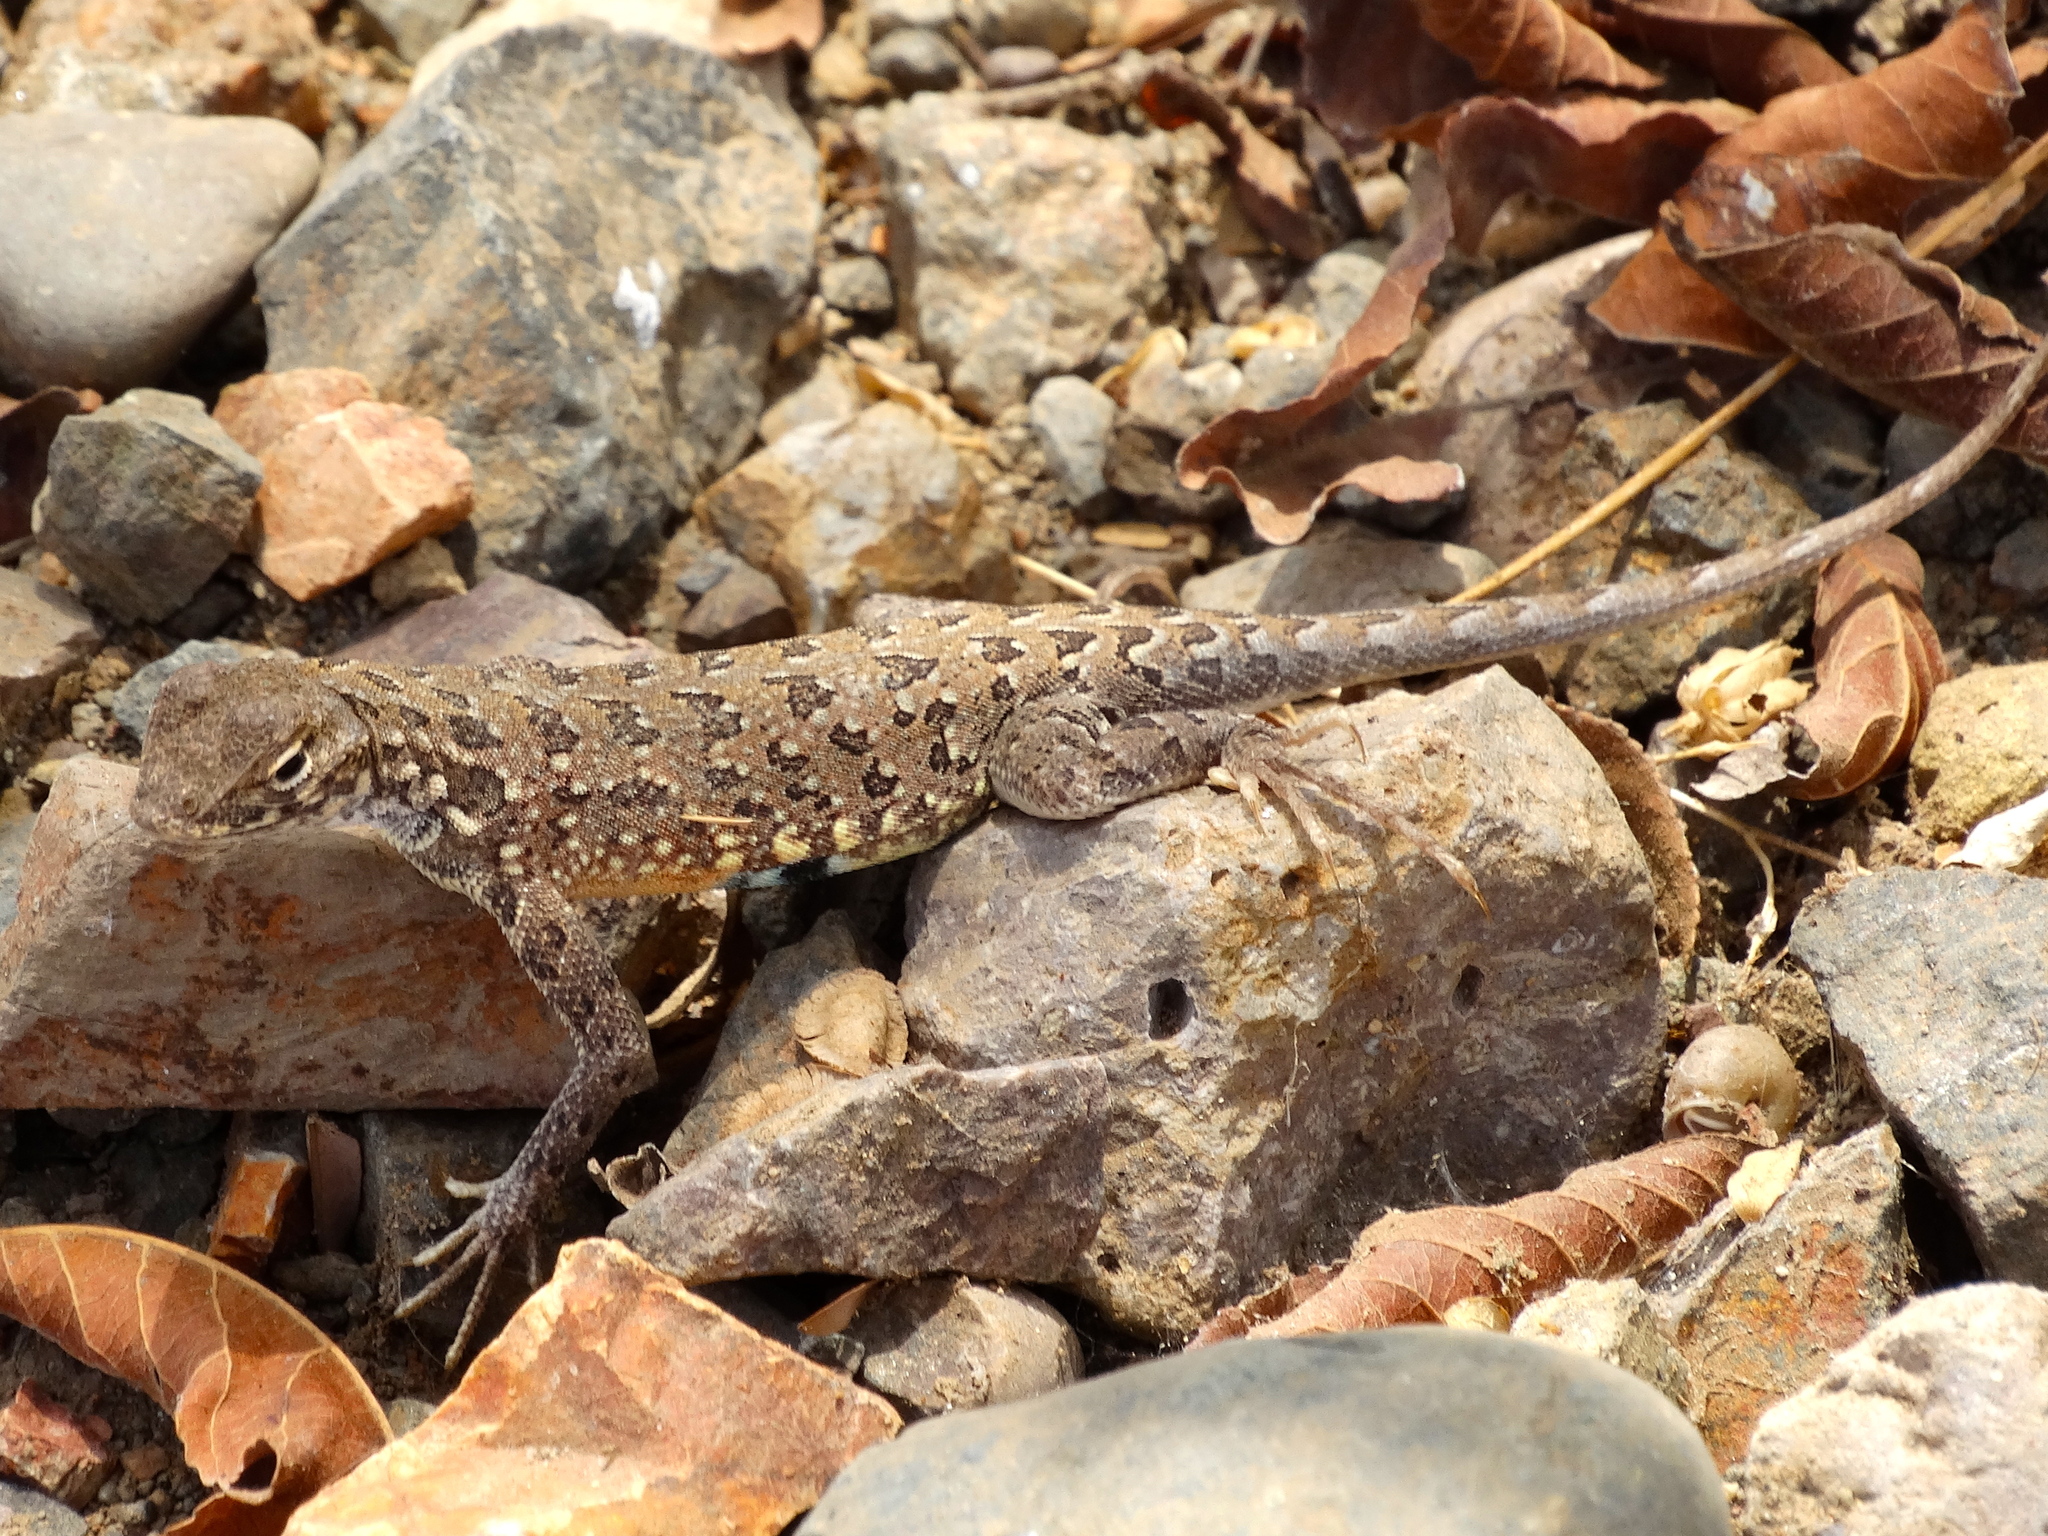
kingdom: Animalia
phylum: Chordata
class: Squamata
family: Phrynosomatidae
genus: Holbrookia
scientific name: Holbrookia elegans
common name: Elegant earless lizard
